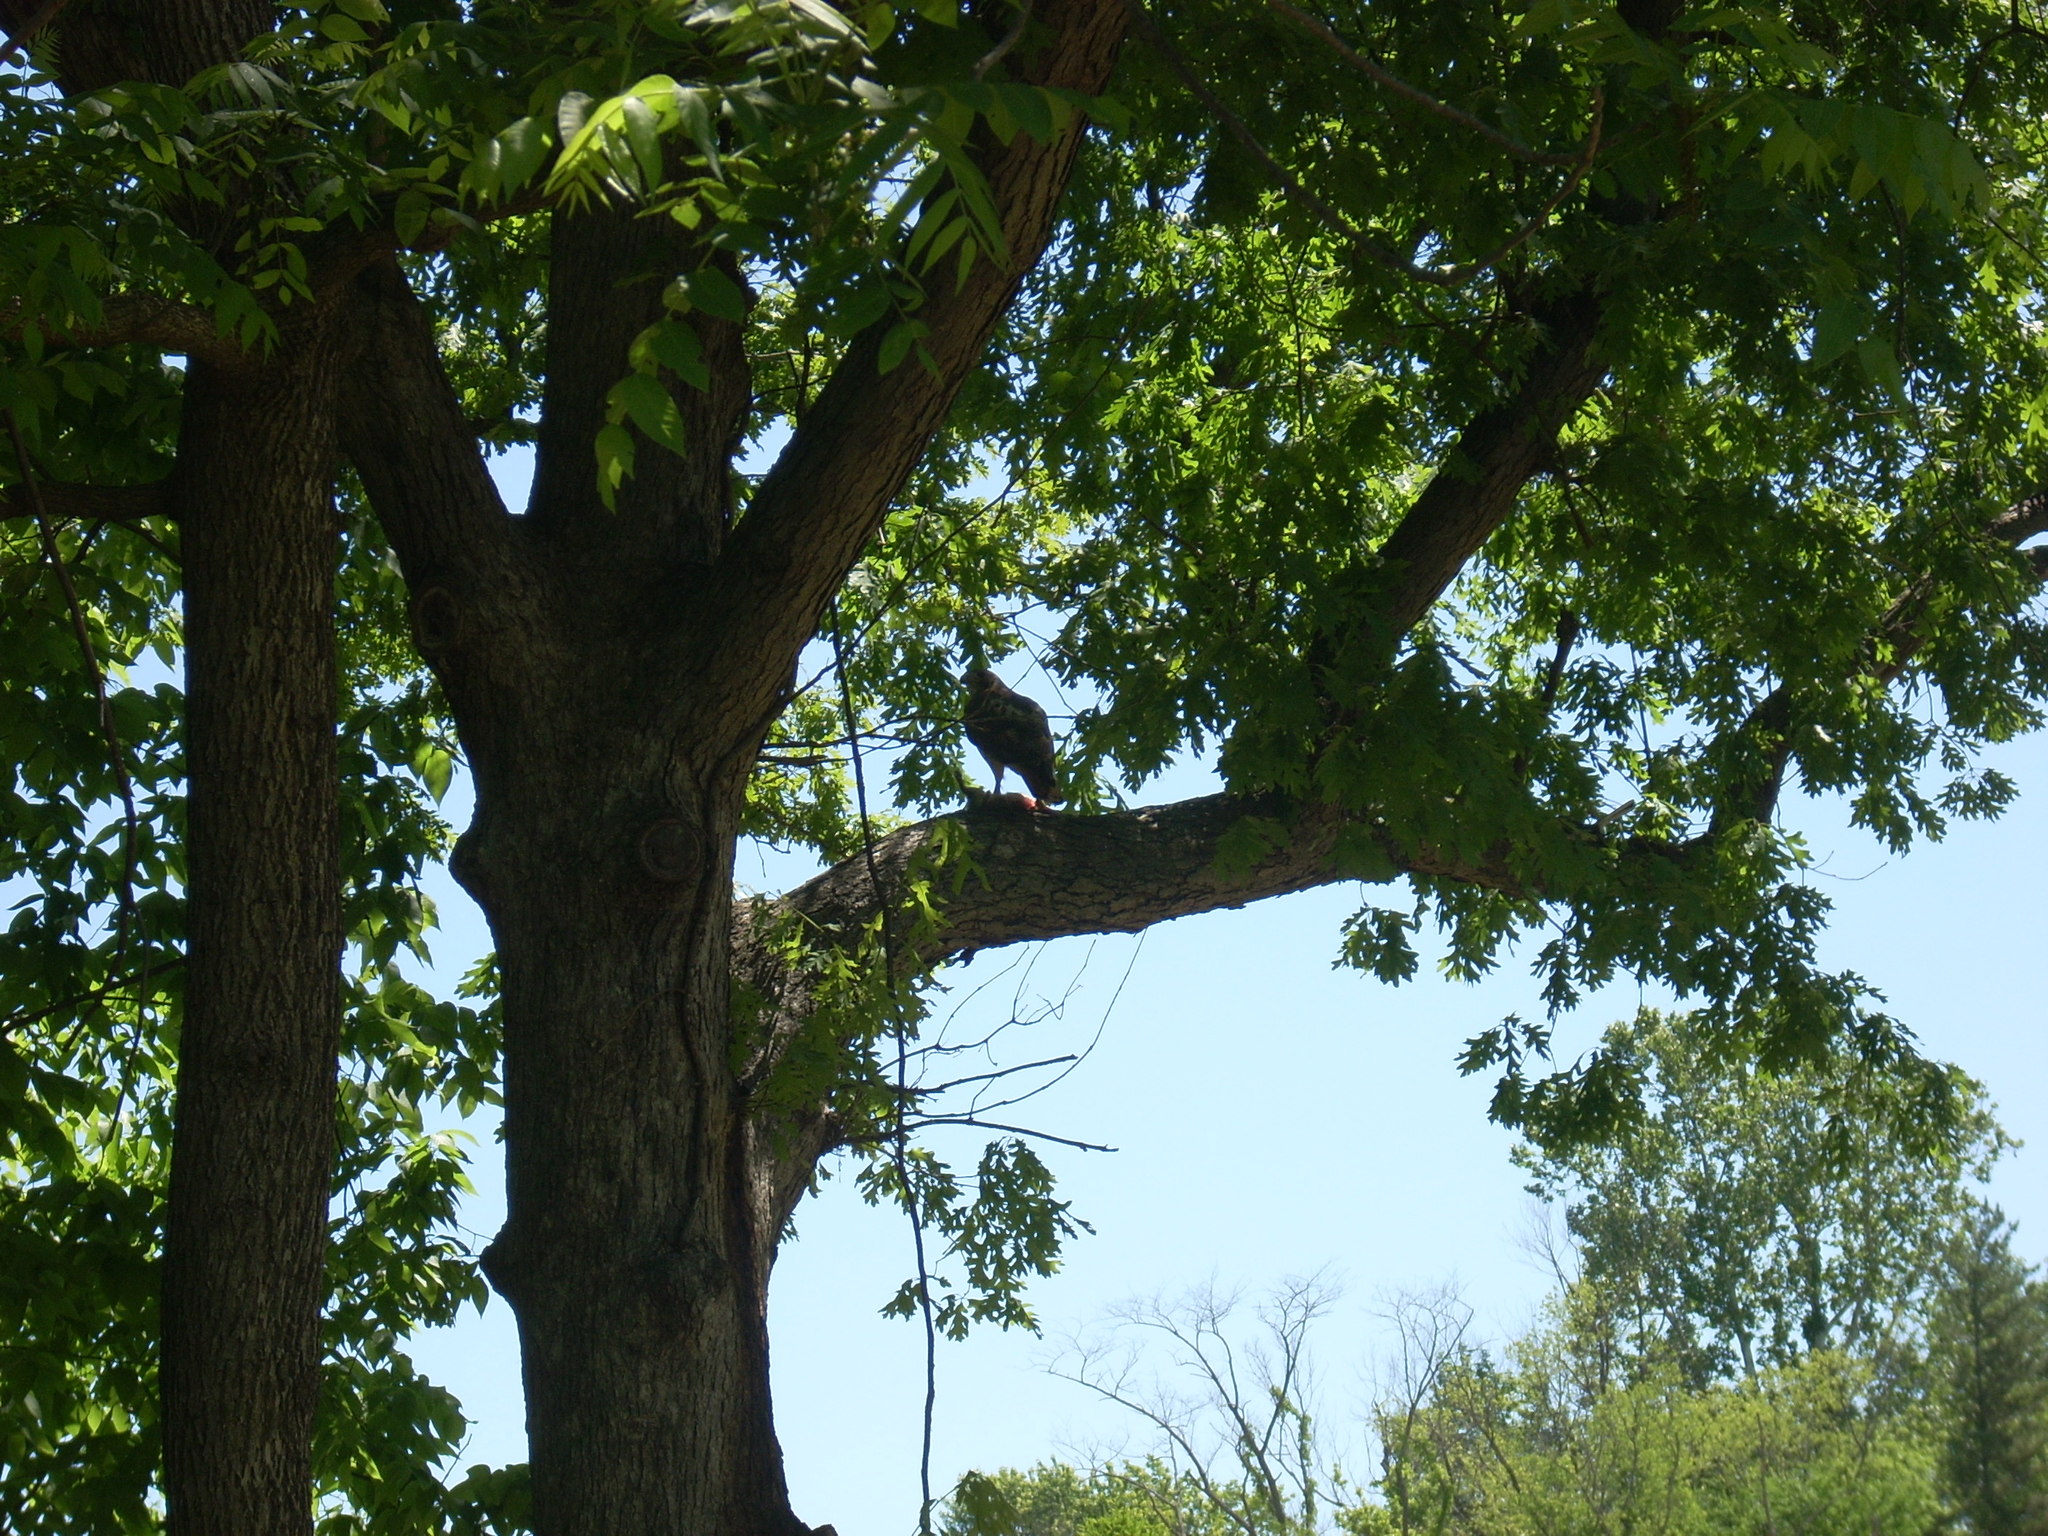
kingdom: Animalia
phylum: Chordata
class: Aves
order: Accipitriformes
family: Accipitridae
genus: Buteo
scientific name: Buteo jamaicensis
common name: Red-tailed hawk
